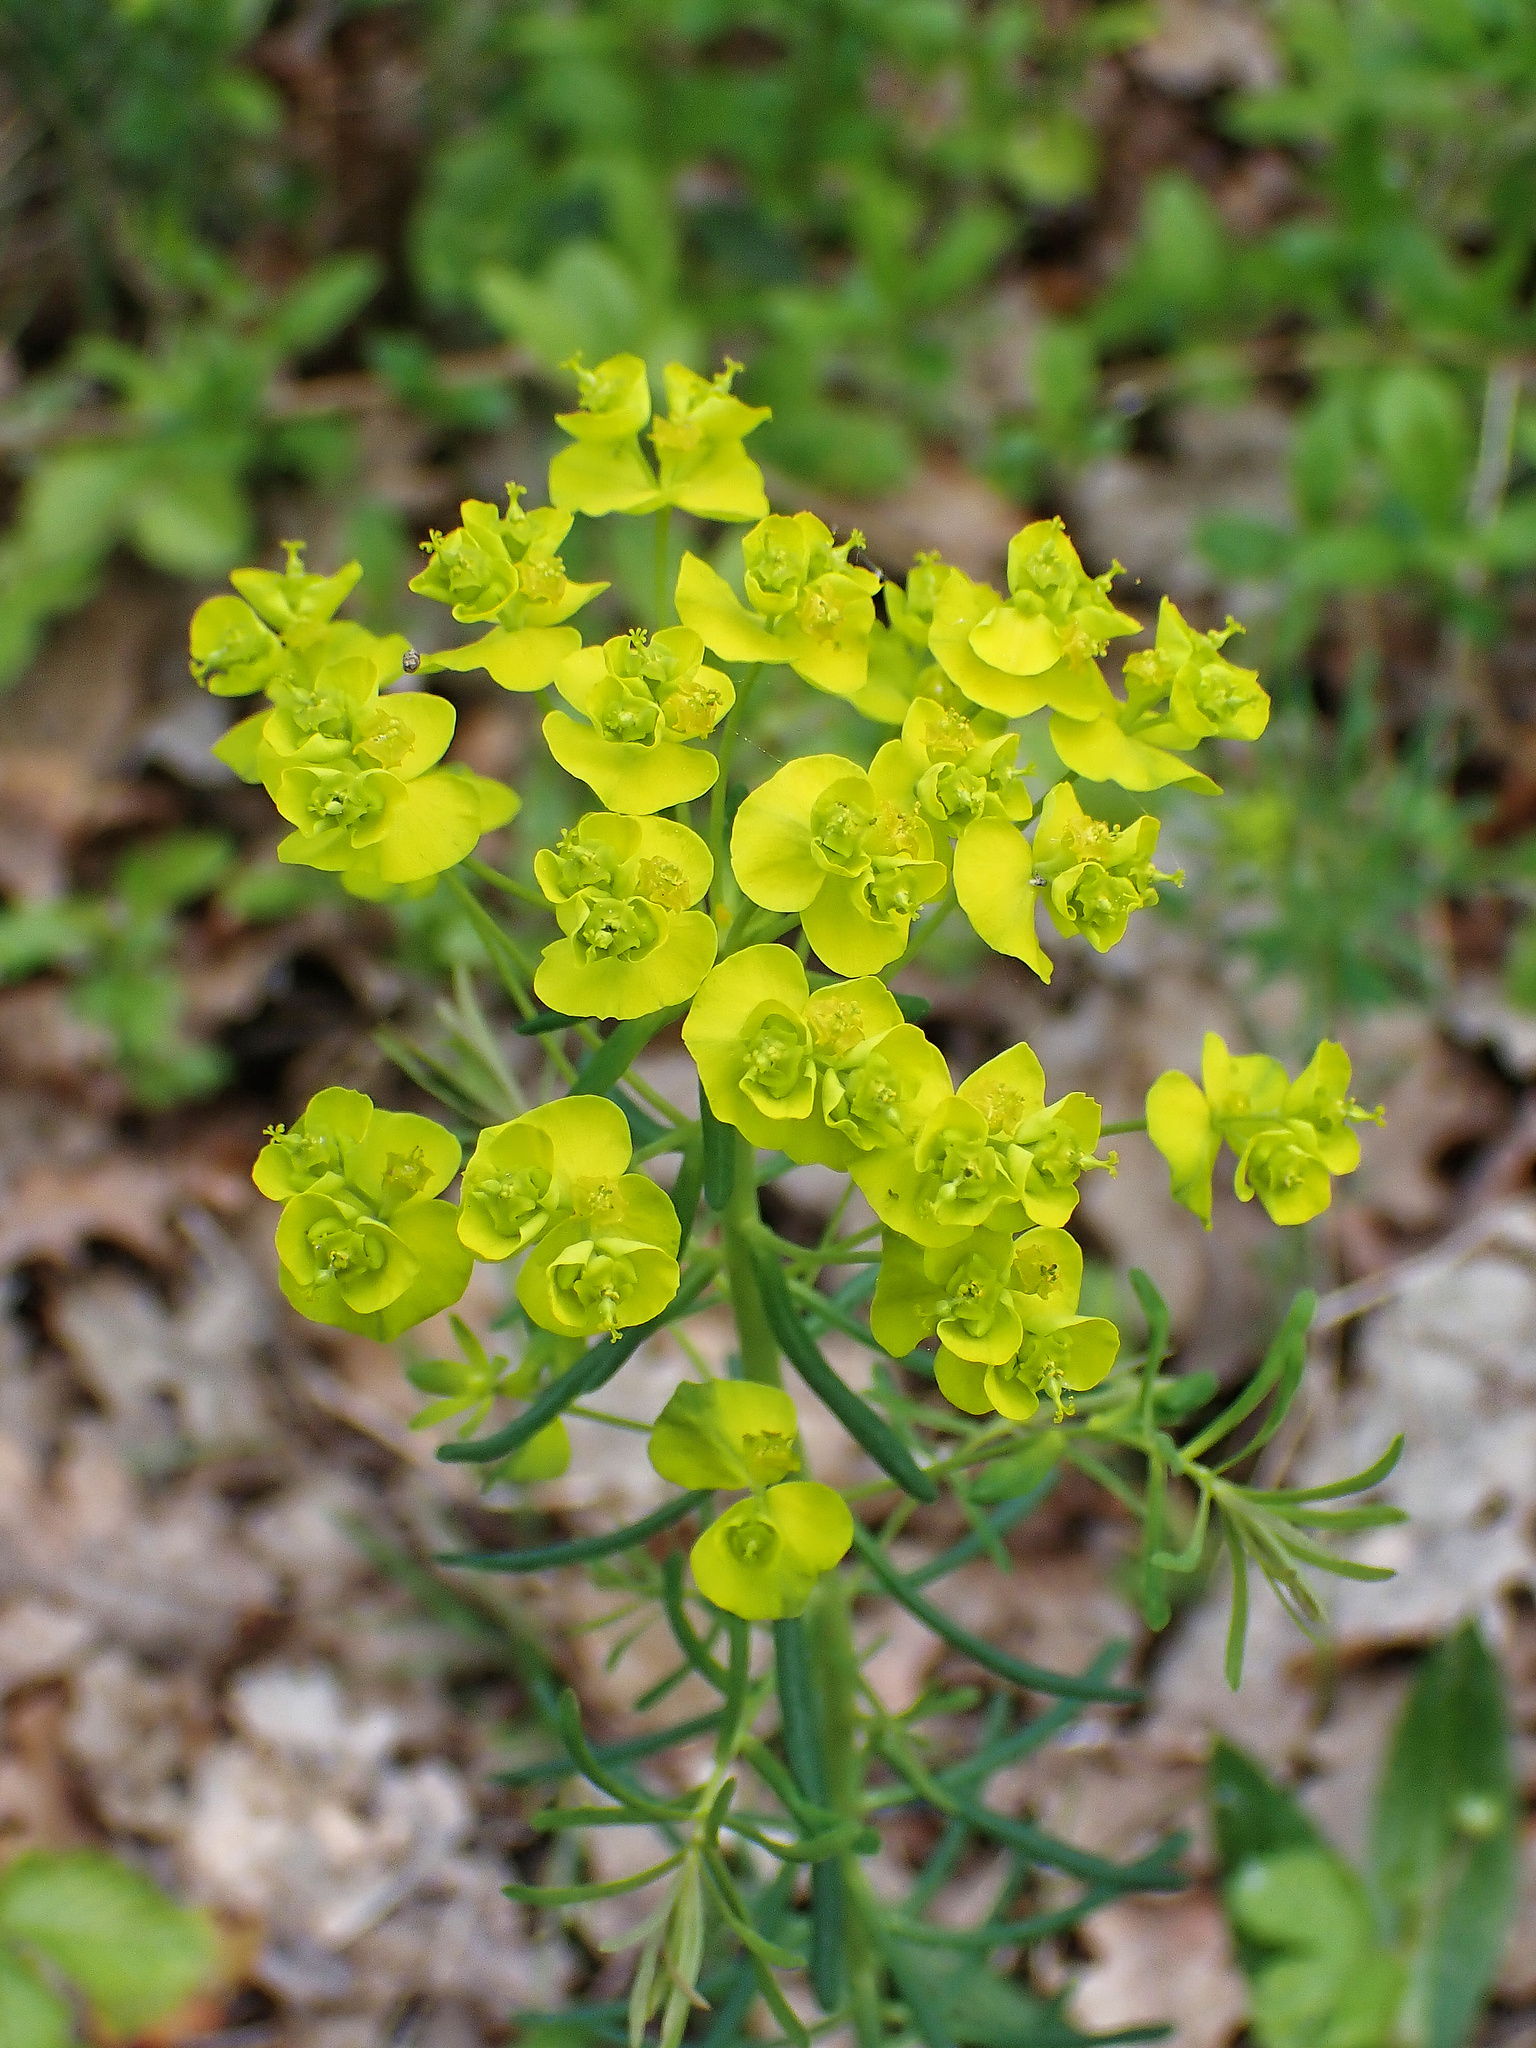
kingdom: Plantae
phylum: Tracheophyta
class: Magnoliopsida
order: Malpighiales
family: Euphorbiaceae
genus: Euphorbia
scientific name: Euphorbia cyparissias
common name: Cypress spurge
